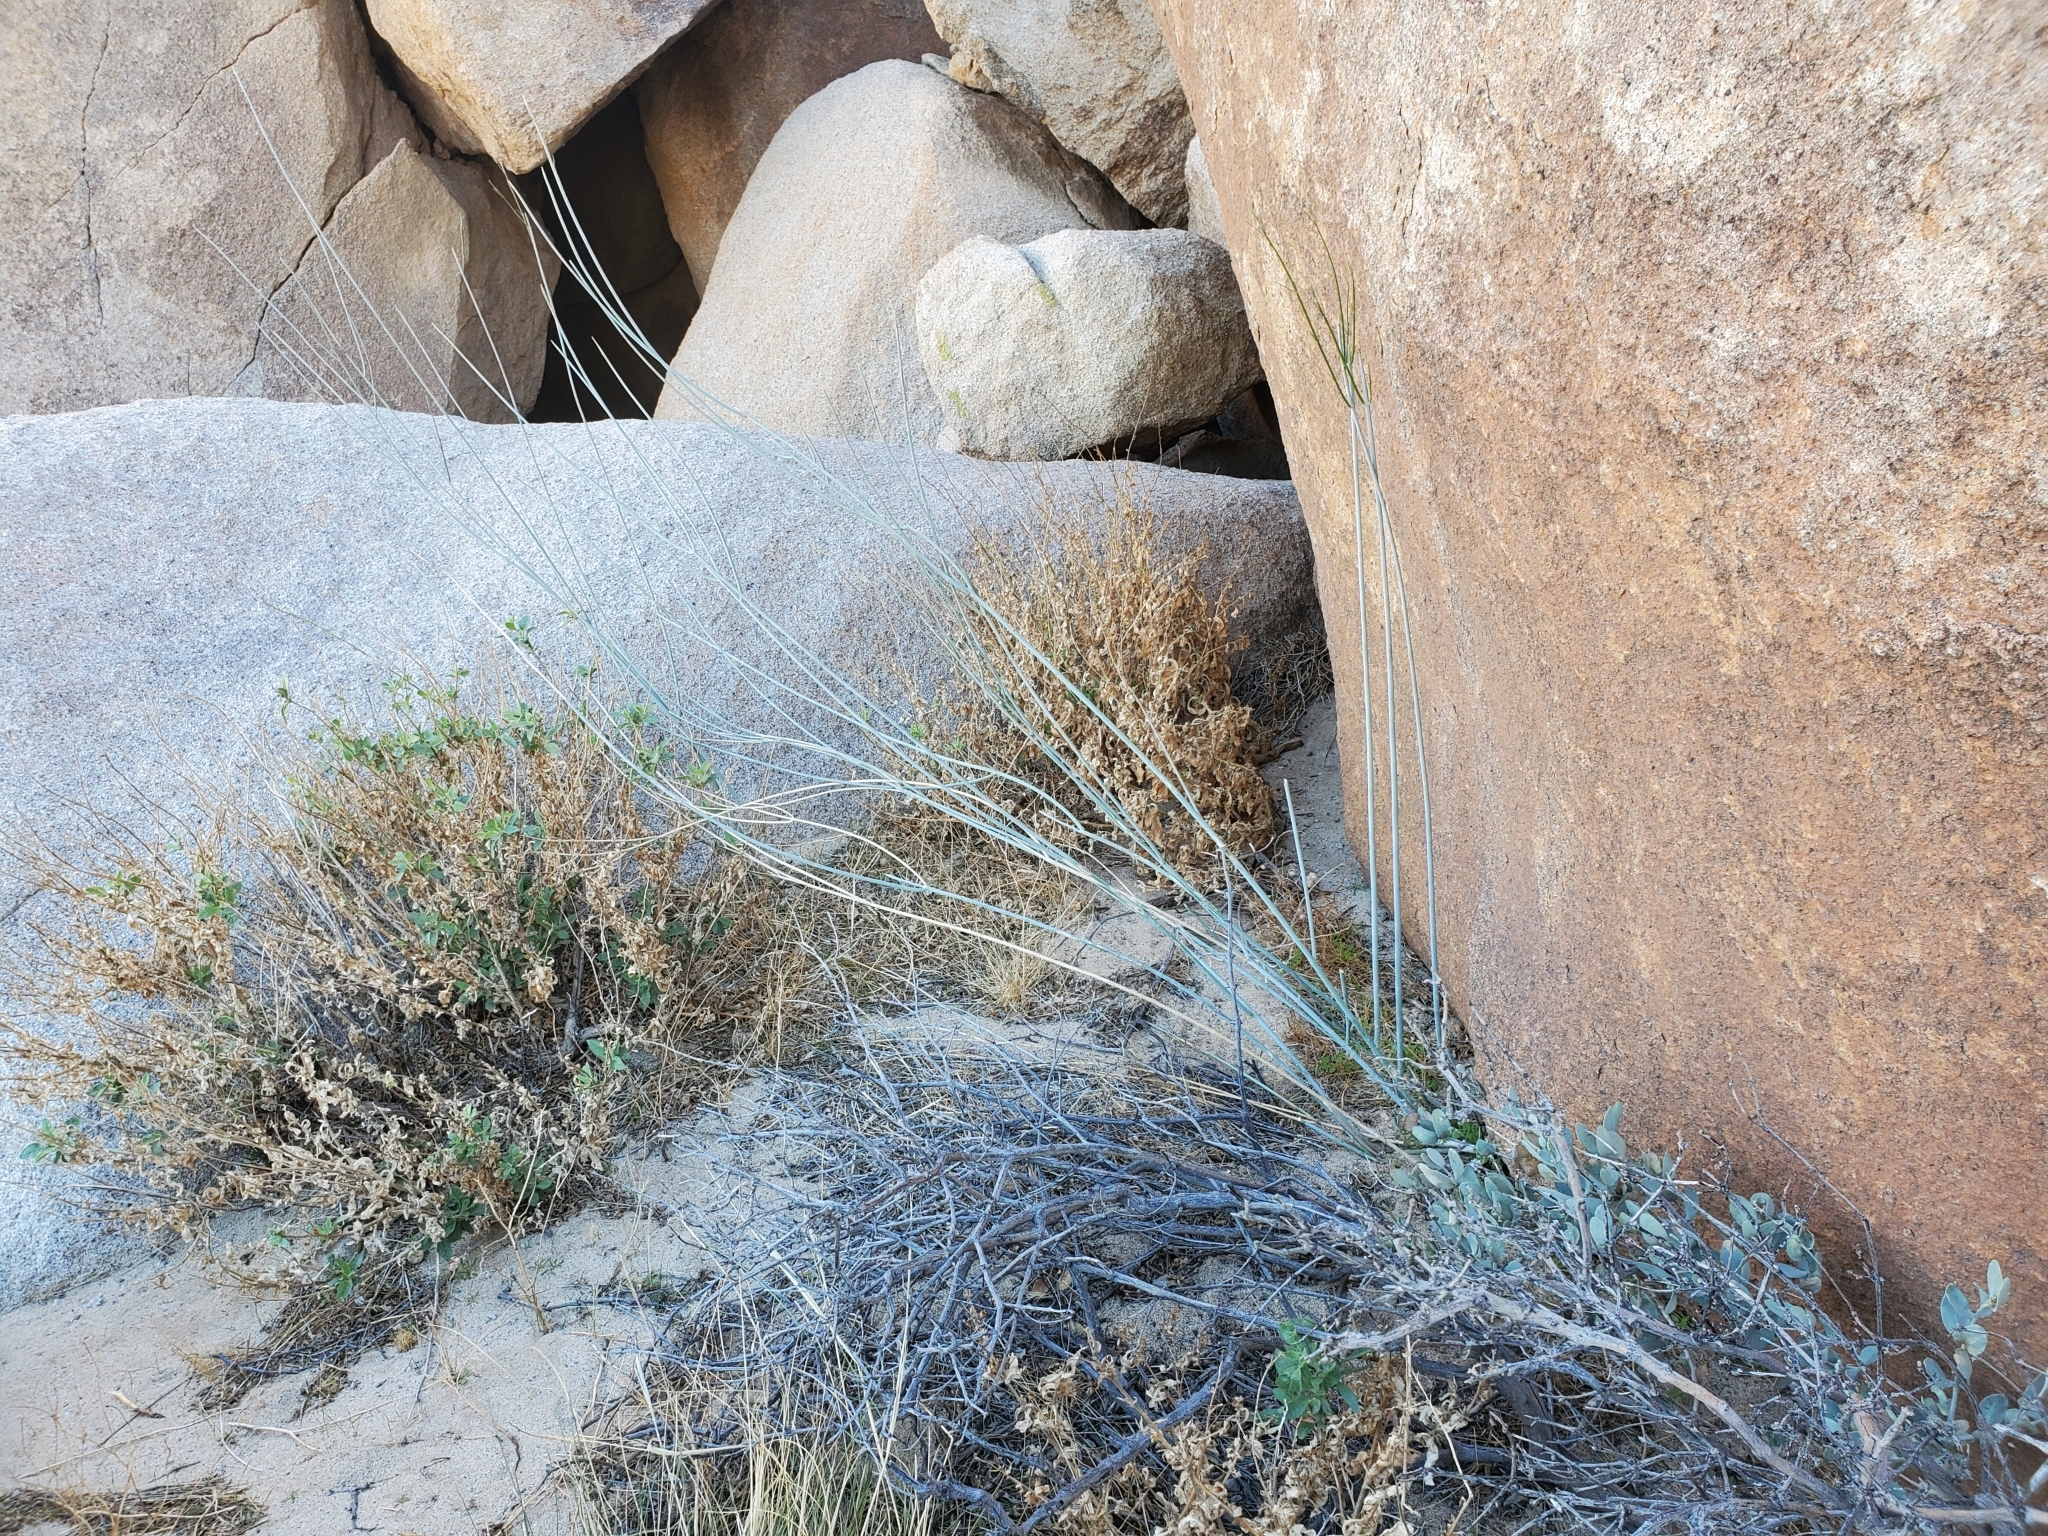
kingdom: Plantae
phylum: Tracheophyta
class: Magnoliopsida
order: Gentianales
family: Apocynaceae
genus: Asclepias
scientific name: Asclepias albicans
